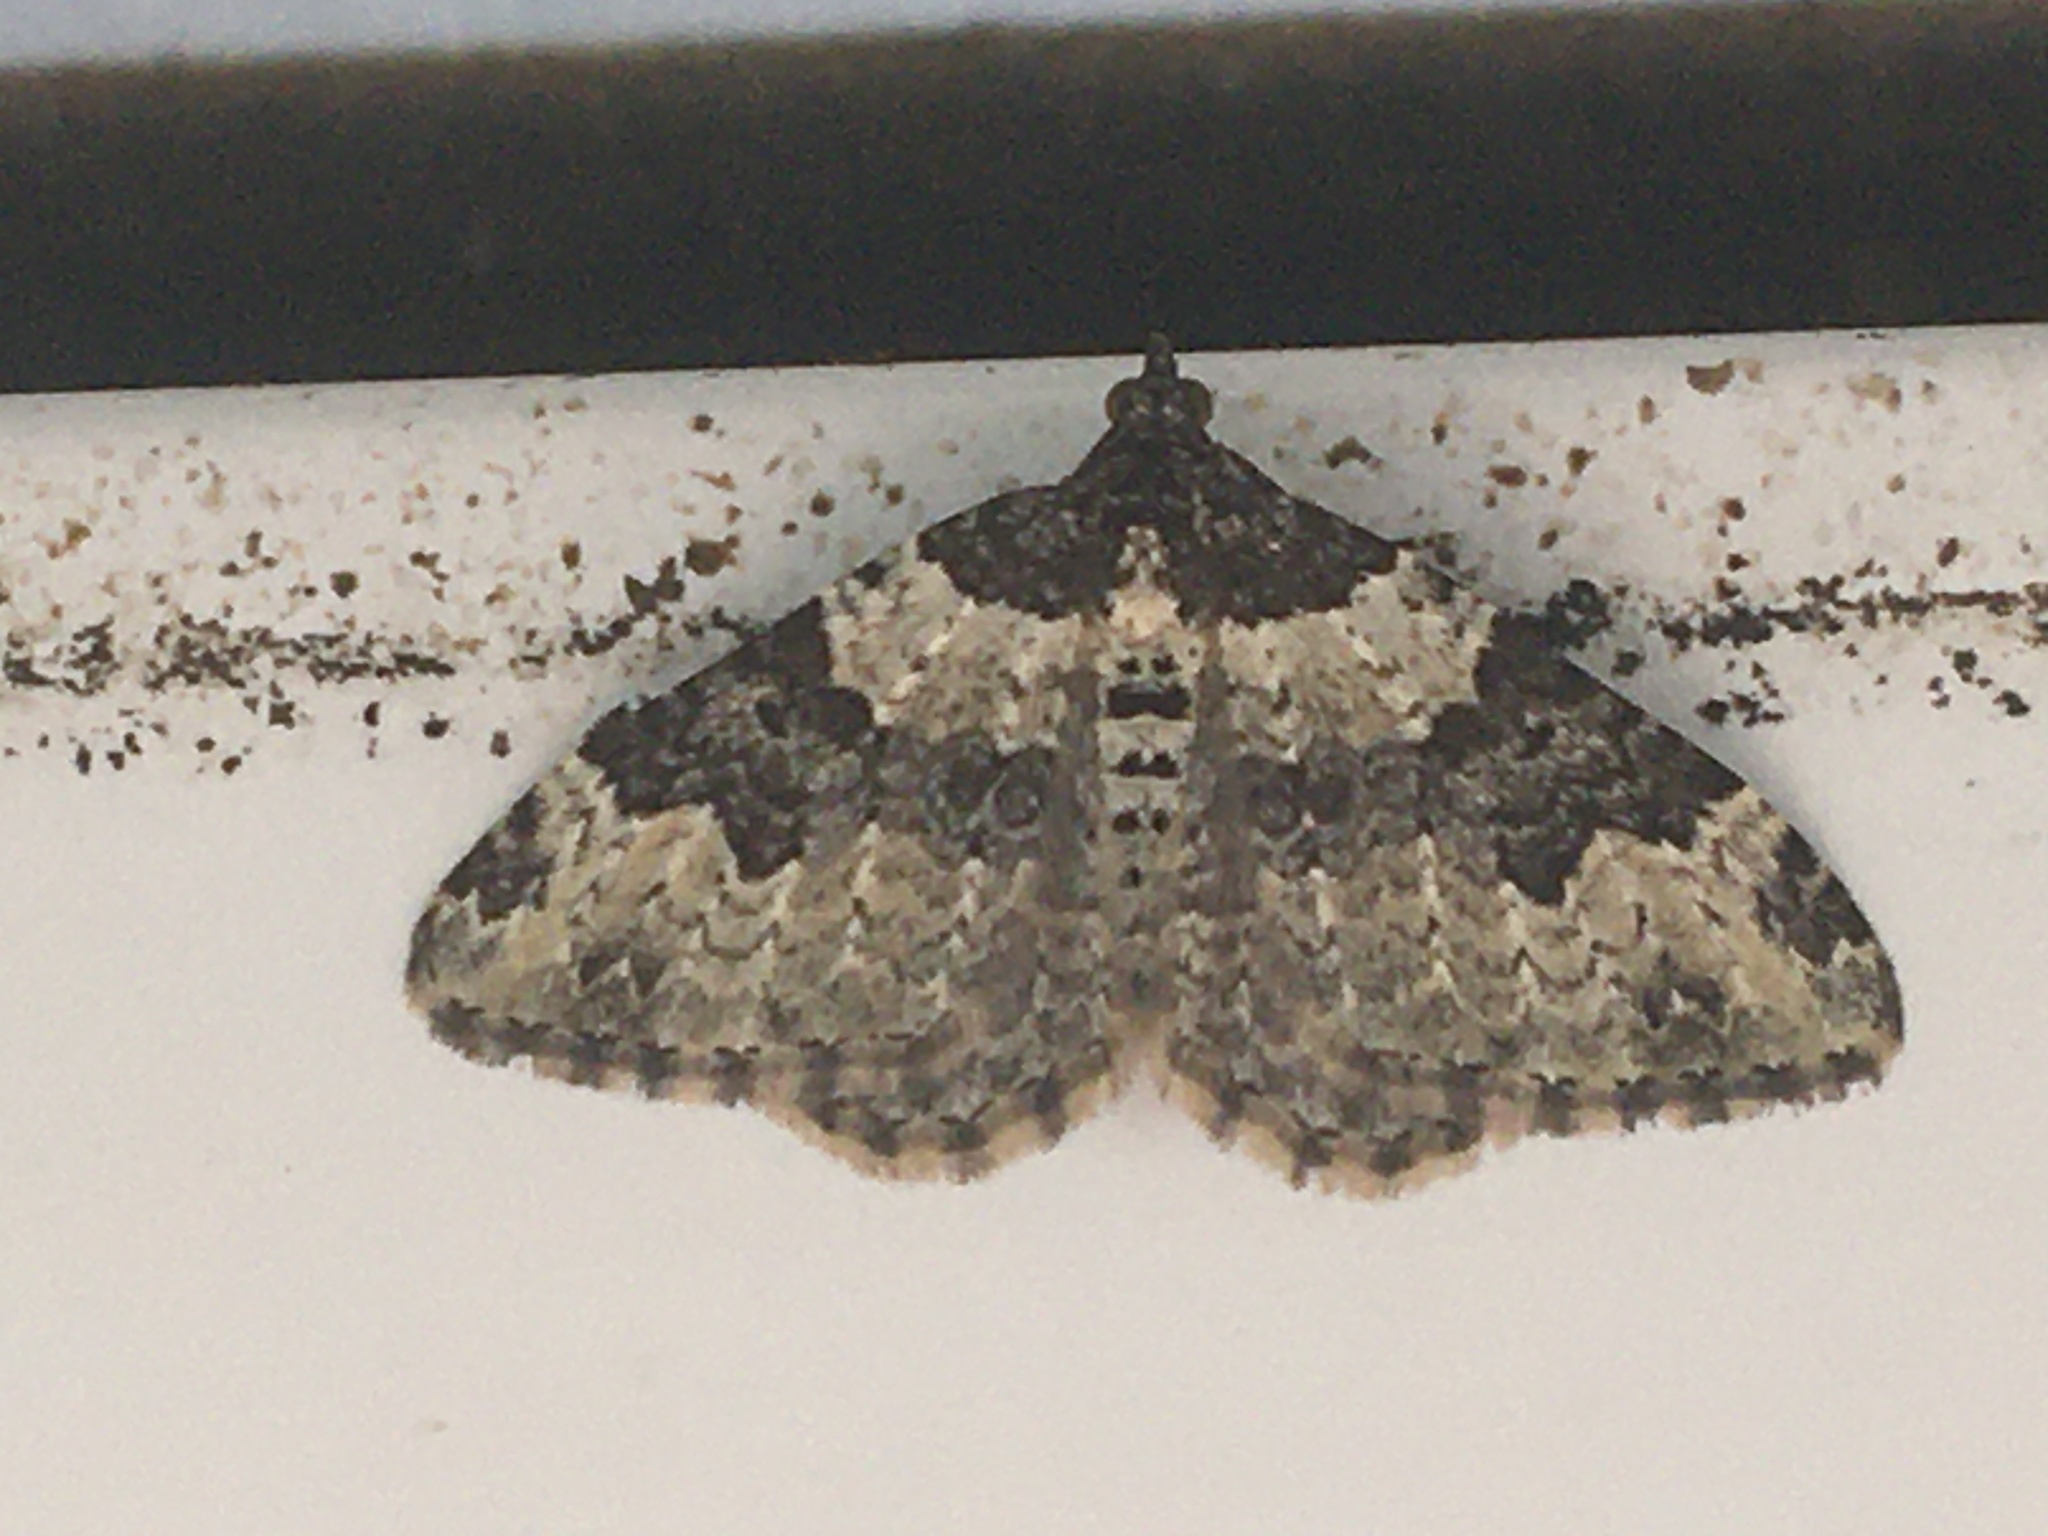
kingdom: Animalia
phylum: Arthropoda
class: Insecta
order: Lepidoptera
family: Geometridae
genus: Xanthorhoe
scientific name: Xanthorhoe fluctuata
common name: Garden carpet
